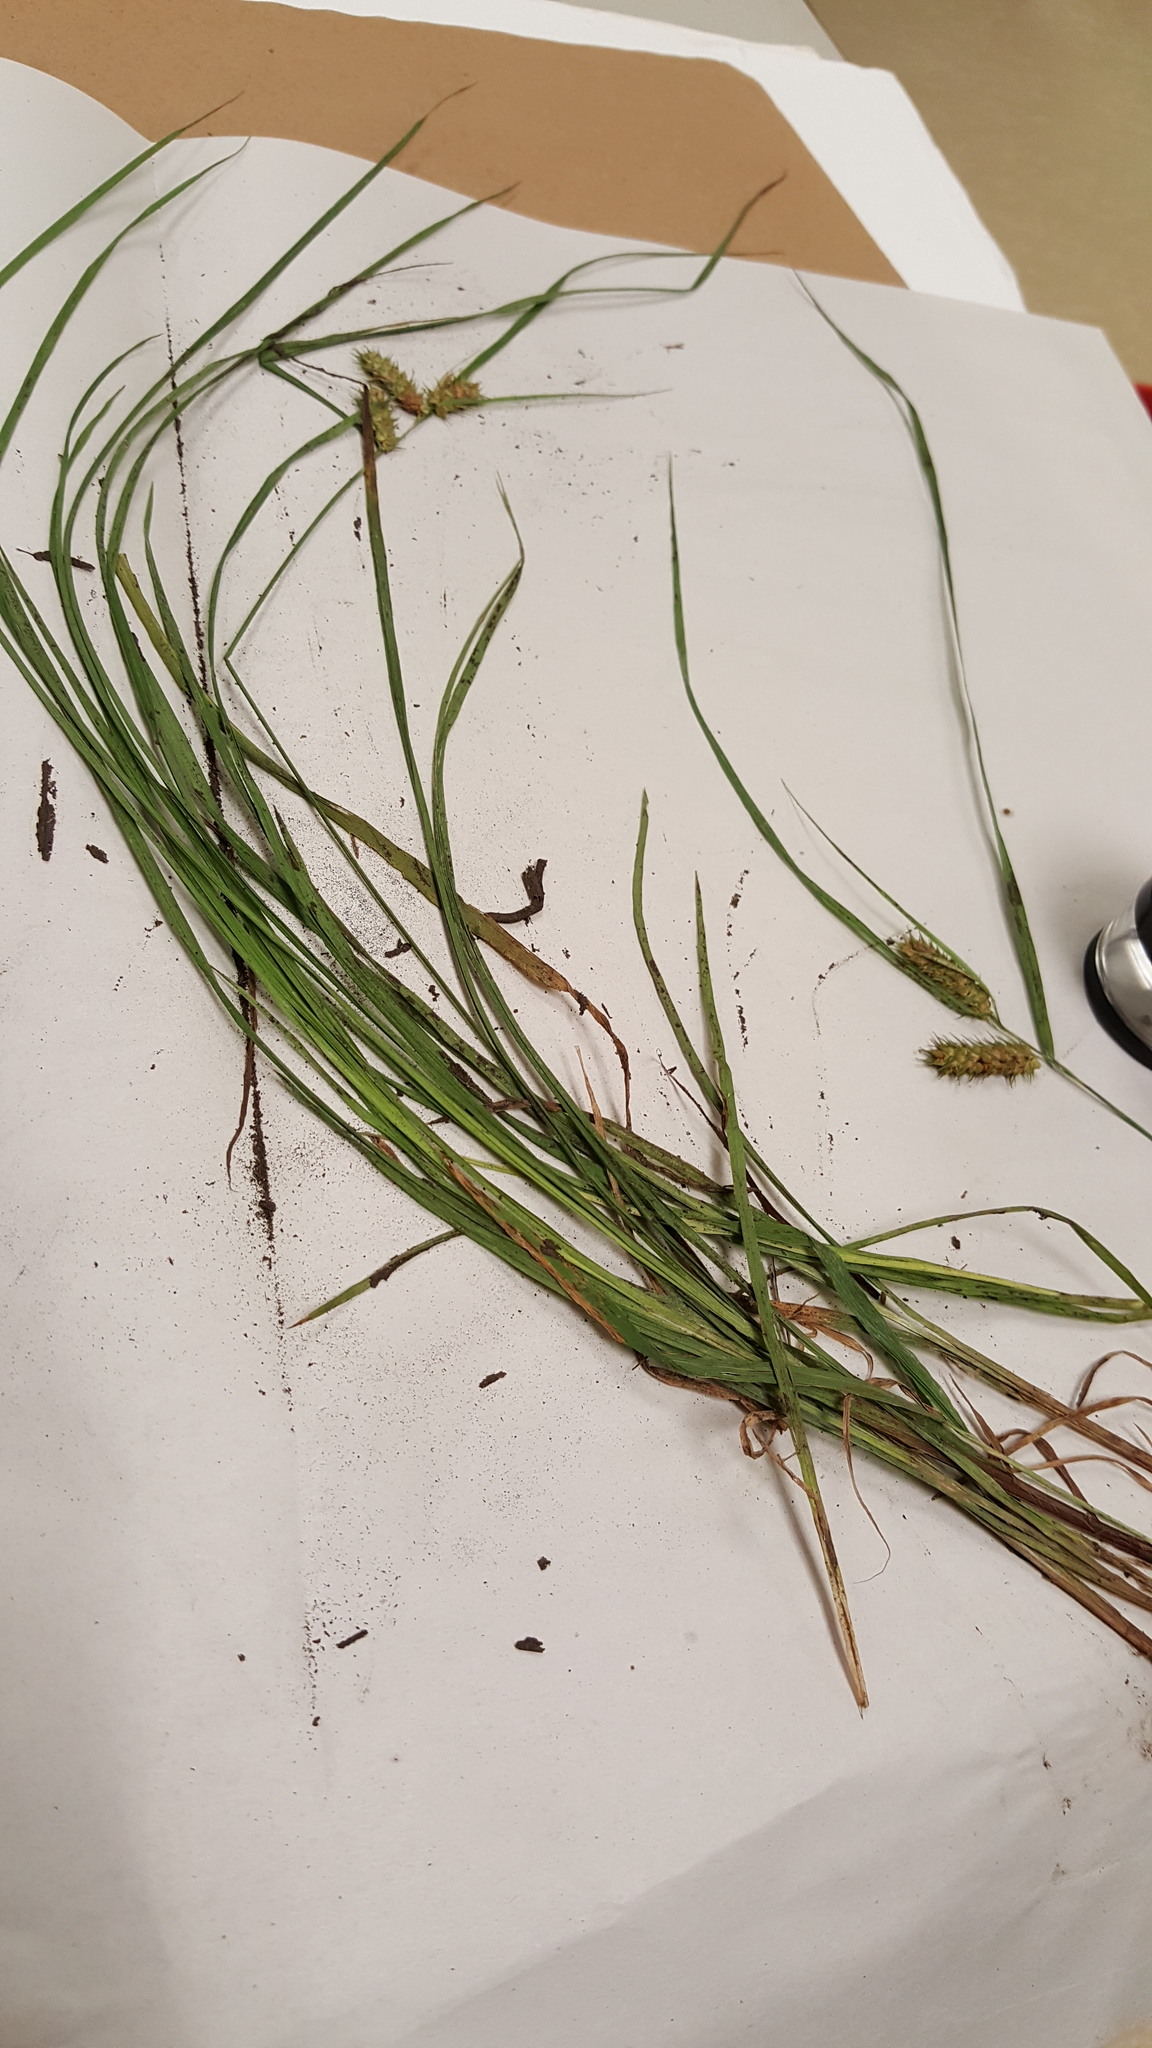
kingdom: Plantae
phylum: Tracheophyta
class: Liliopsida
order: Poales
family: Cyperaceae
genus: Carex
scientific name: Carex lurida
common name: Sallow sedge
